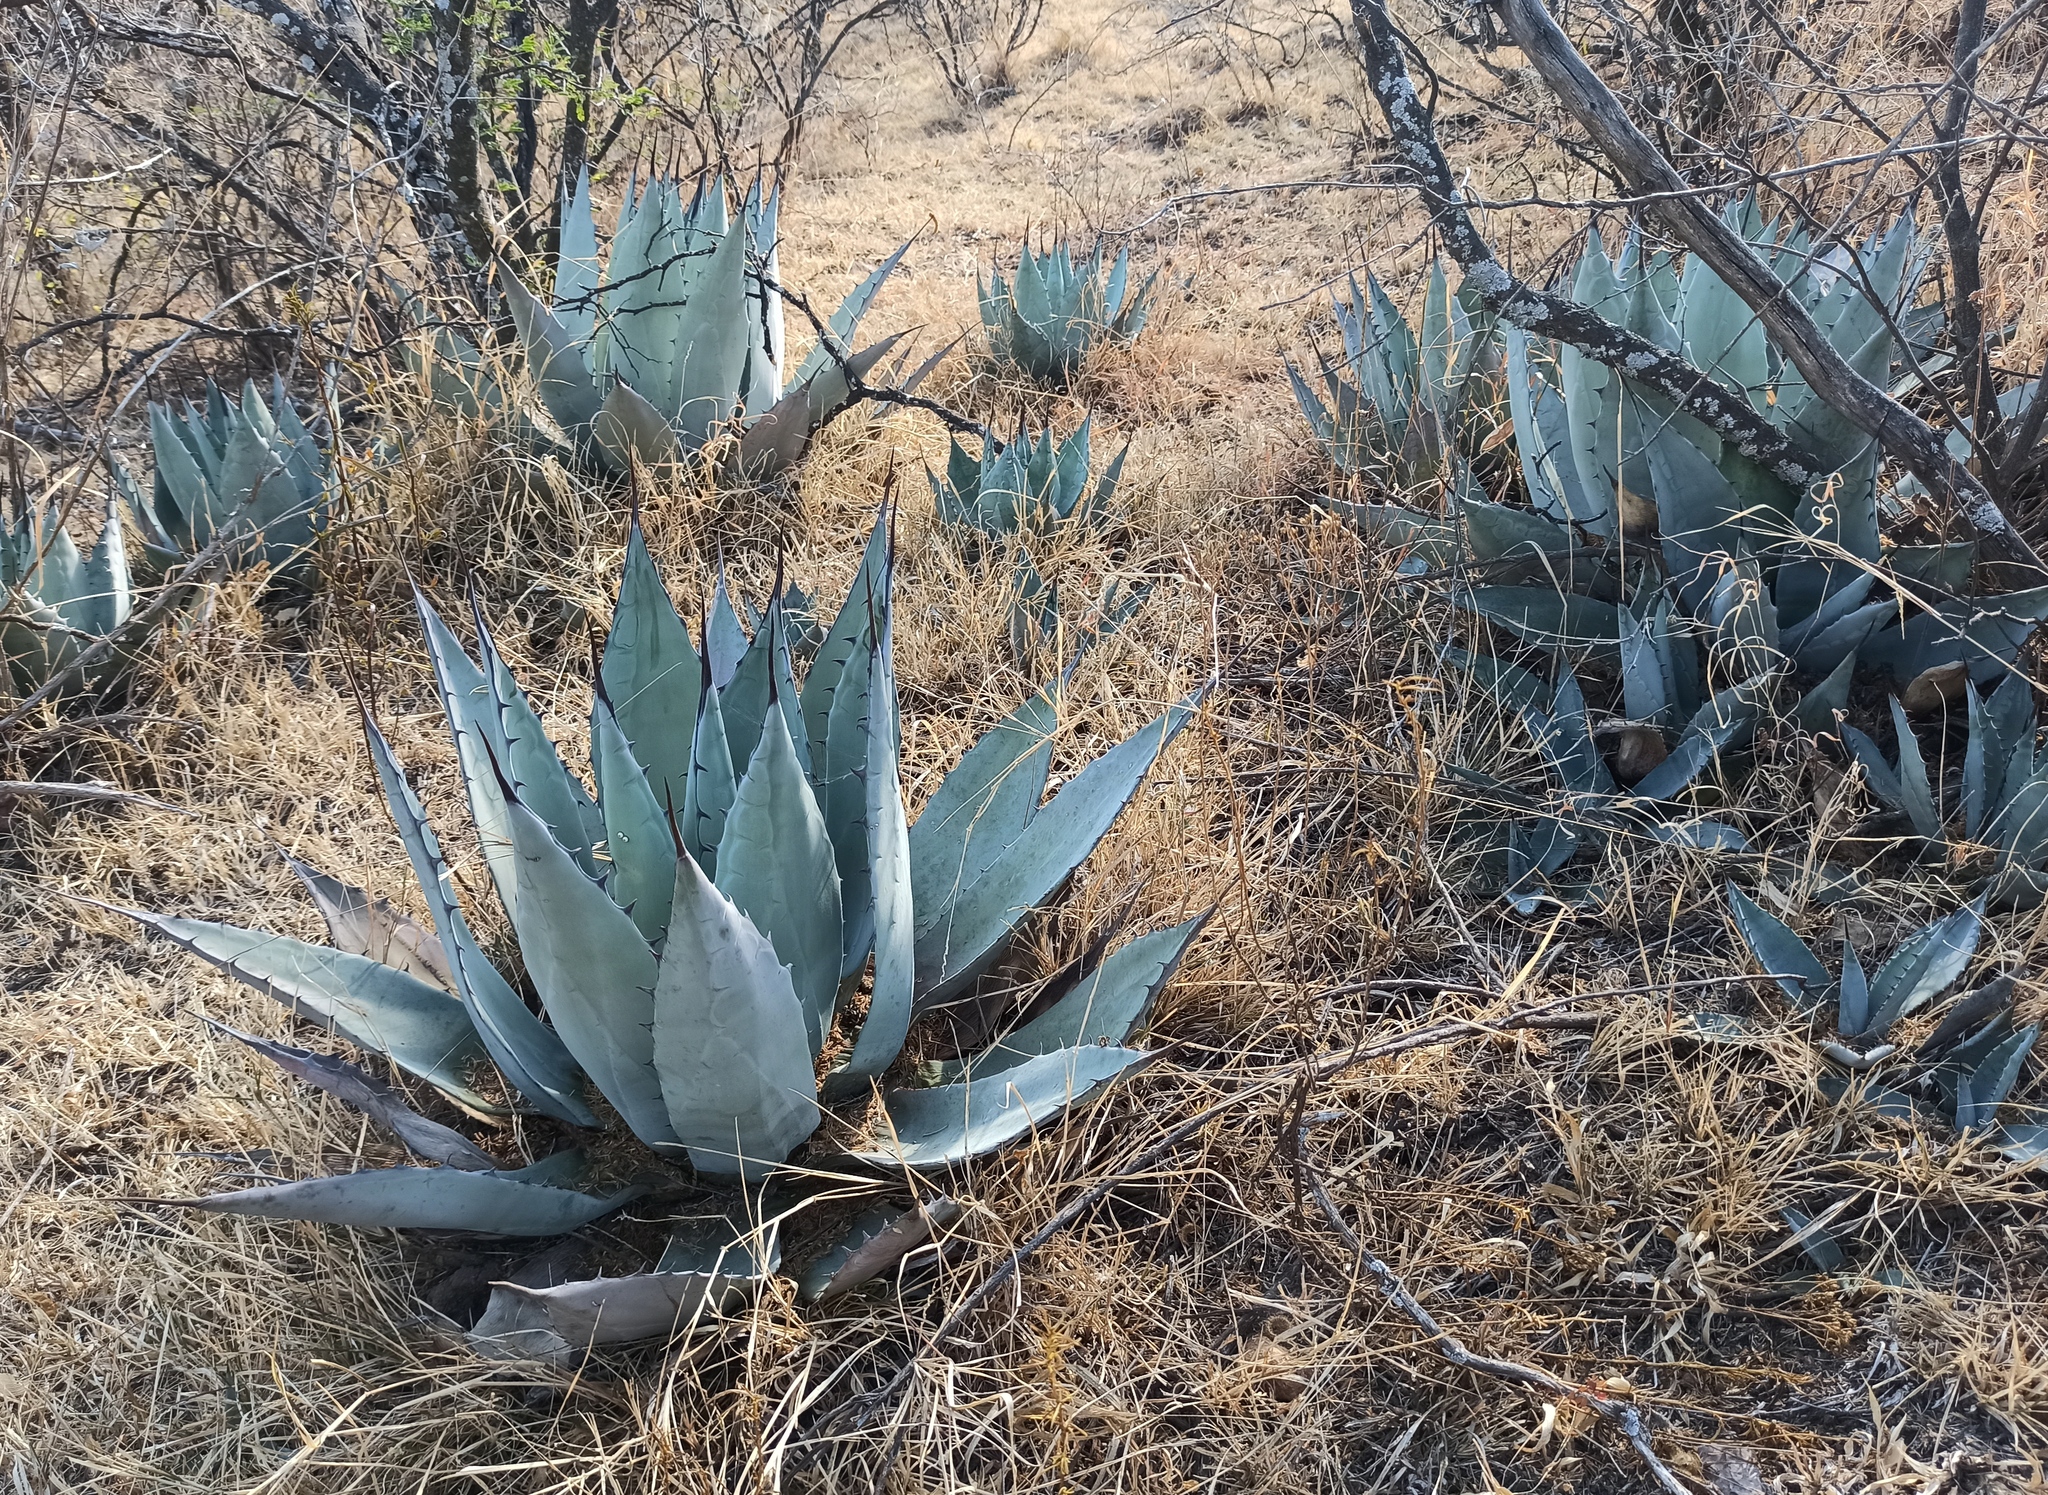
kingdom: Plantae
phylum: Tracheophyta
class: Liliopsida
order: Asparagales
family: Asparagaceae
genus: Agave
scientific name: Agave applanata
